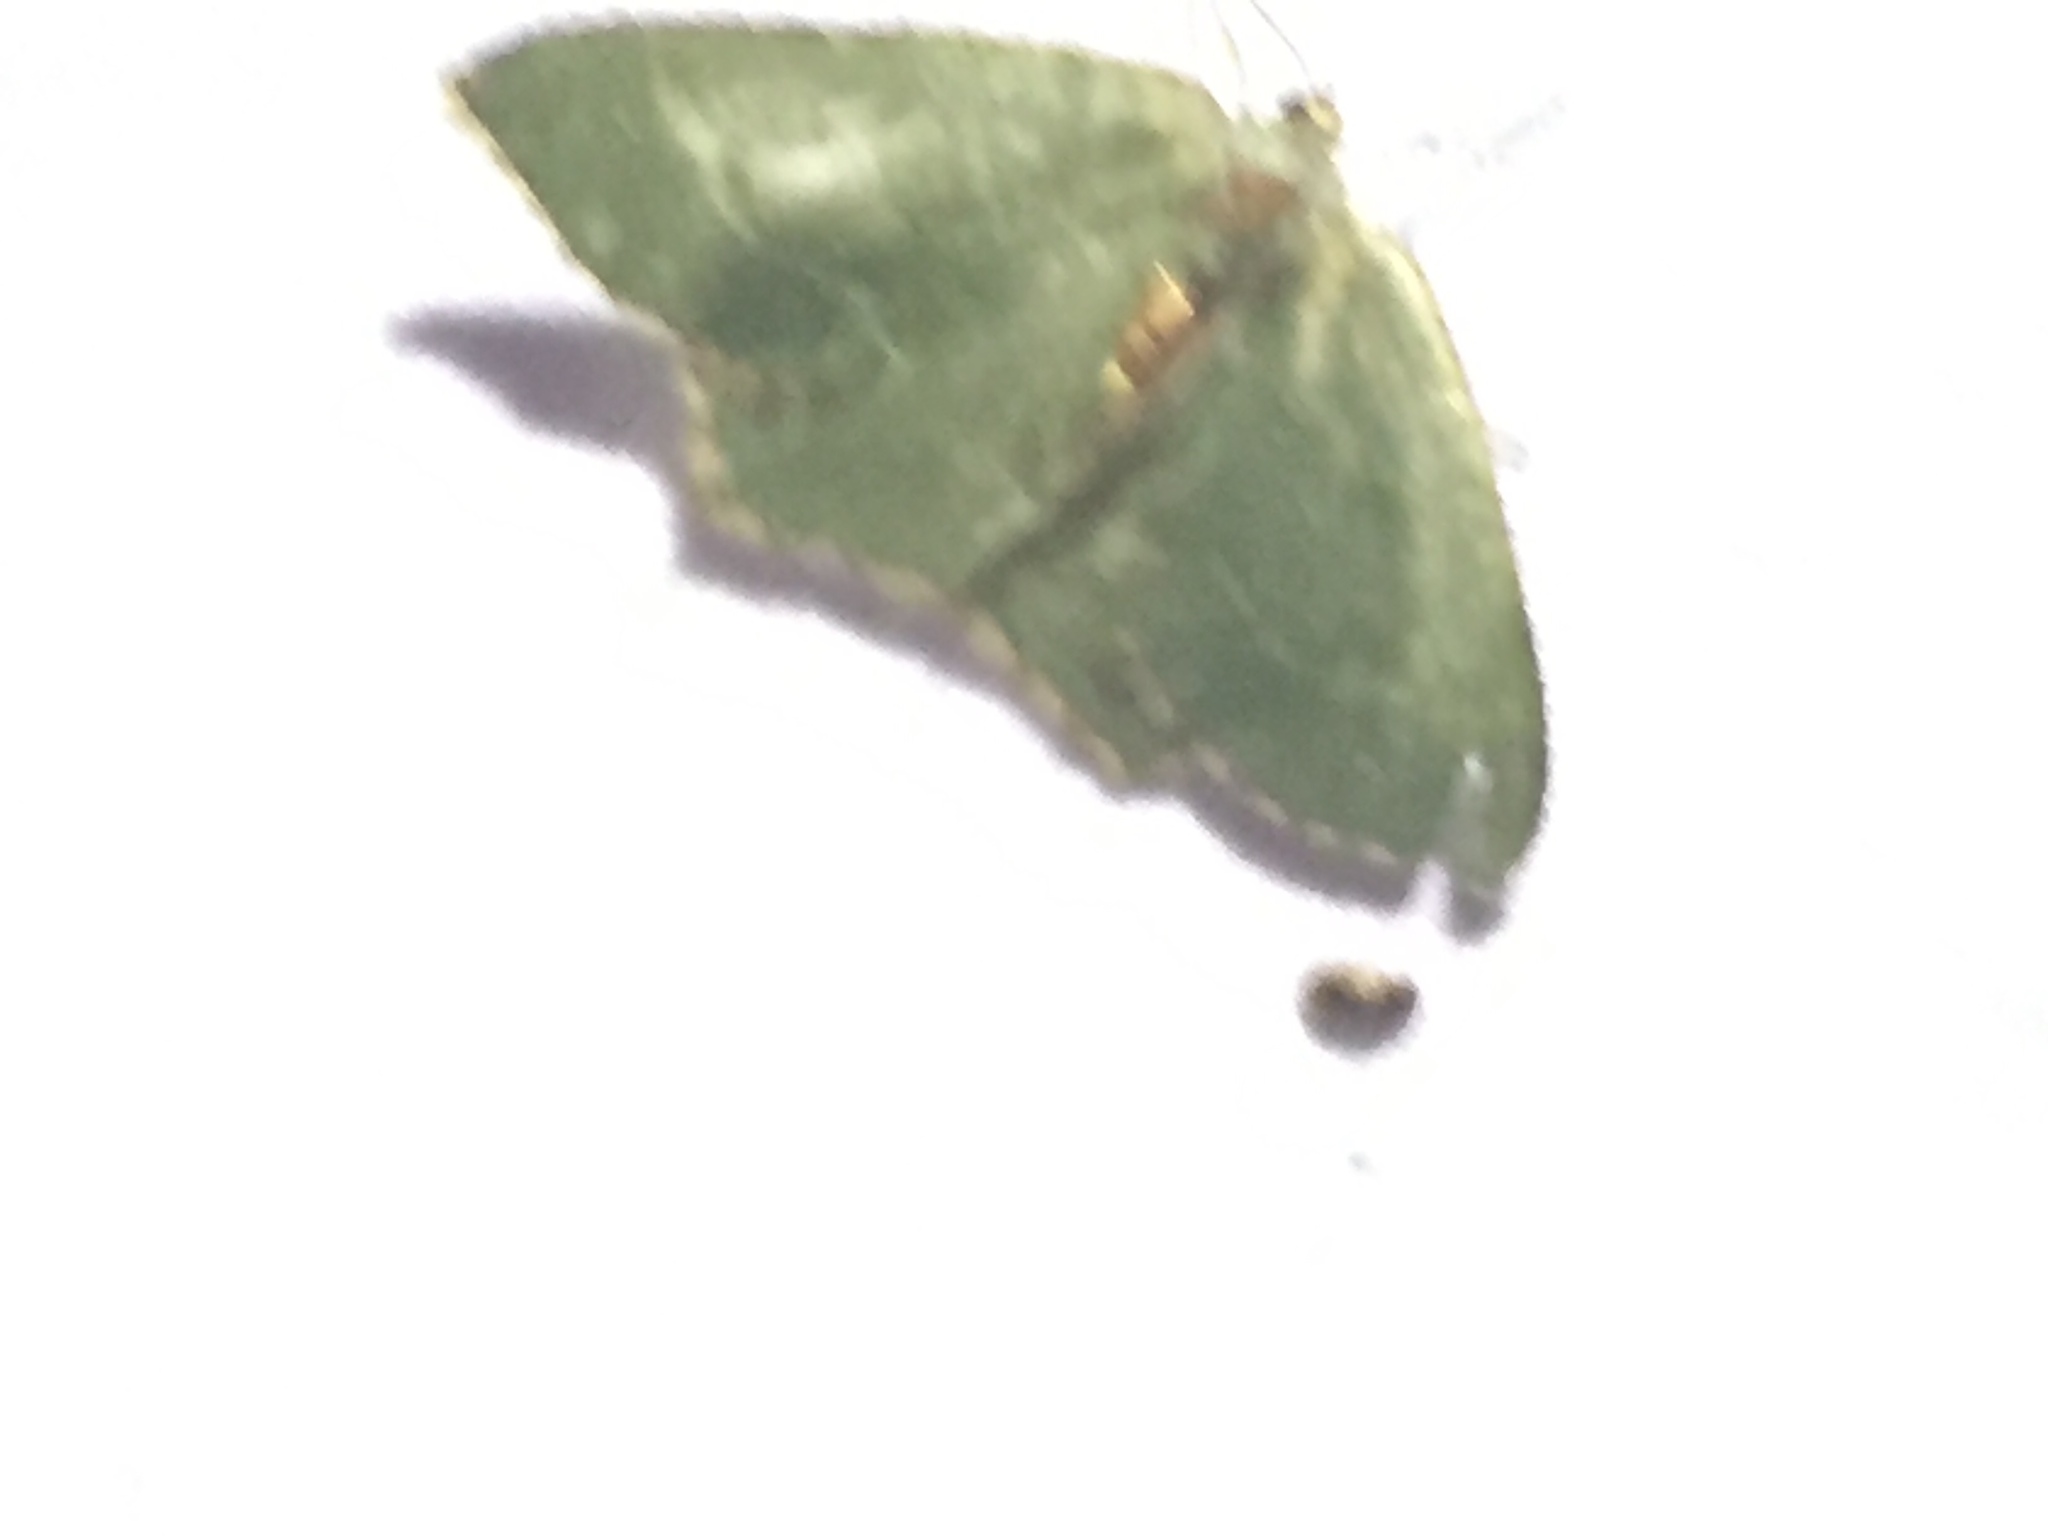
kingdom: Animalia
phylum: Arthropoda
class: Insecta
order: Lepidoptera
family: Geometridae
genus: Hemithea
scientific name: Hemithea aestivaria
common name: Common emerald
